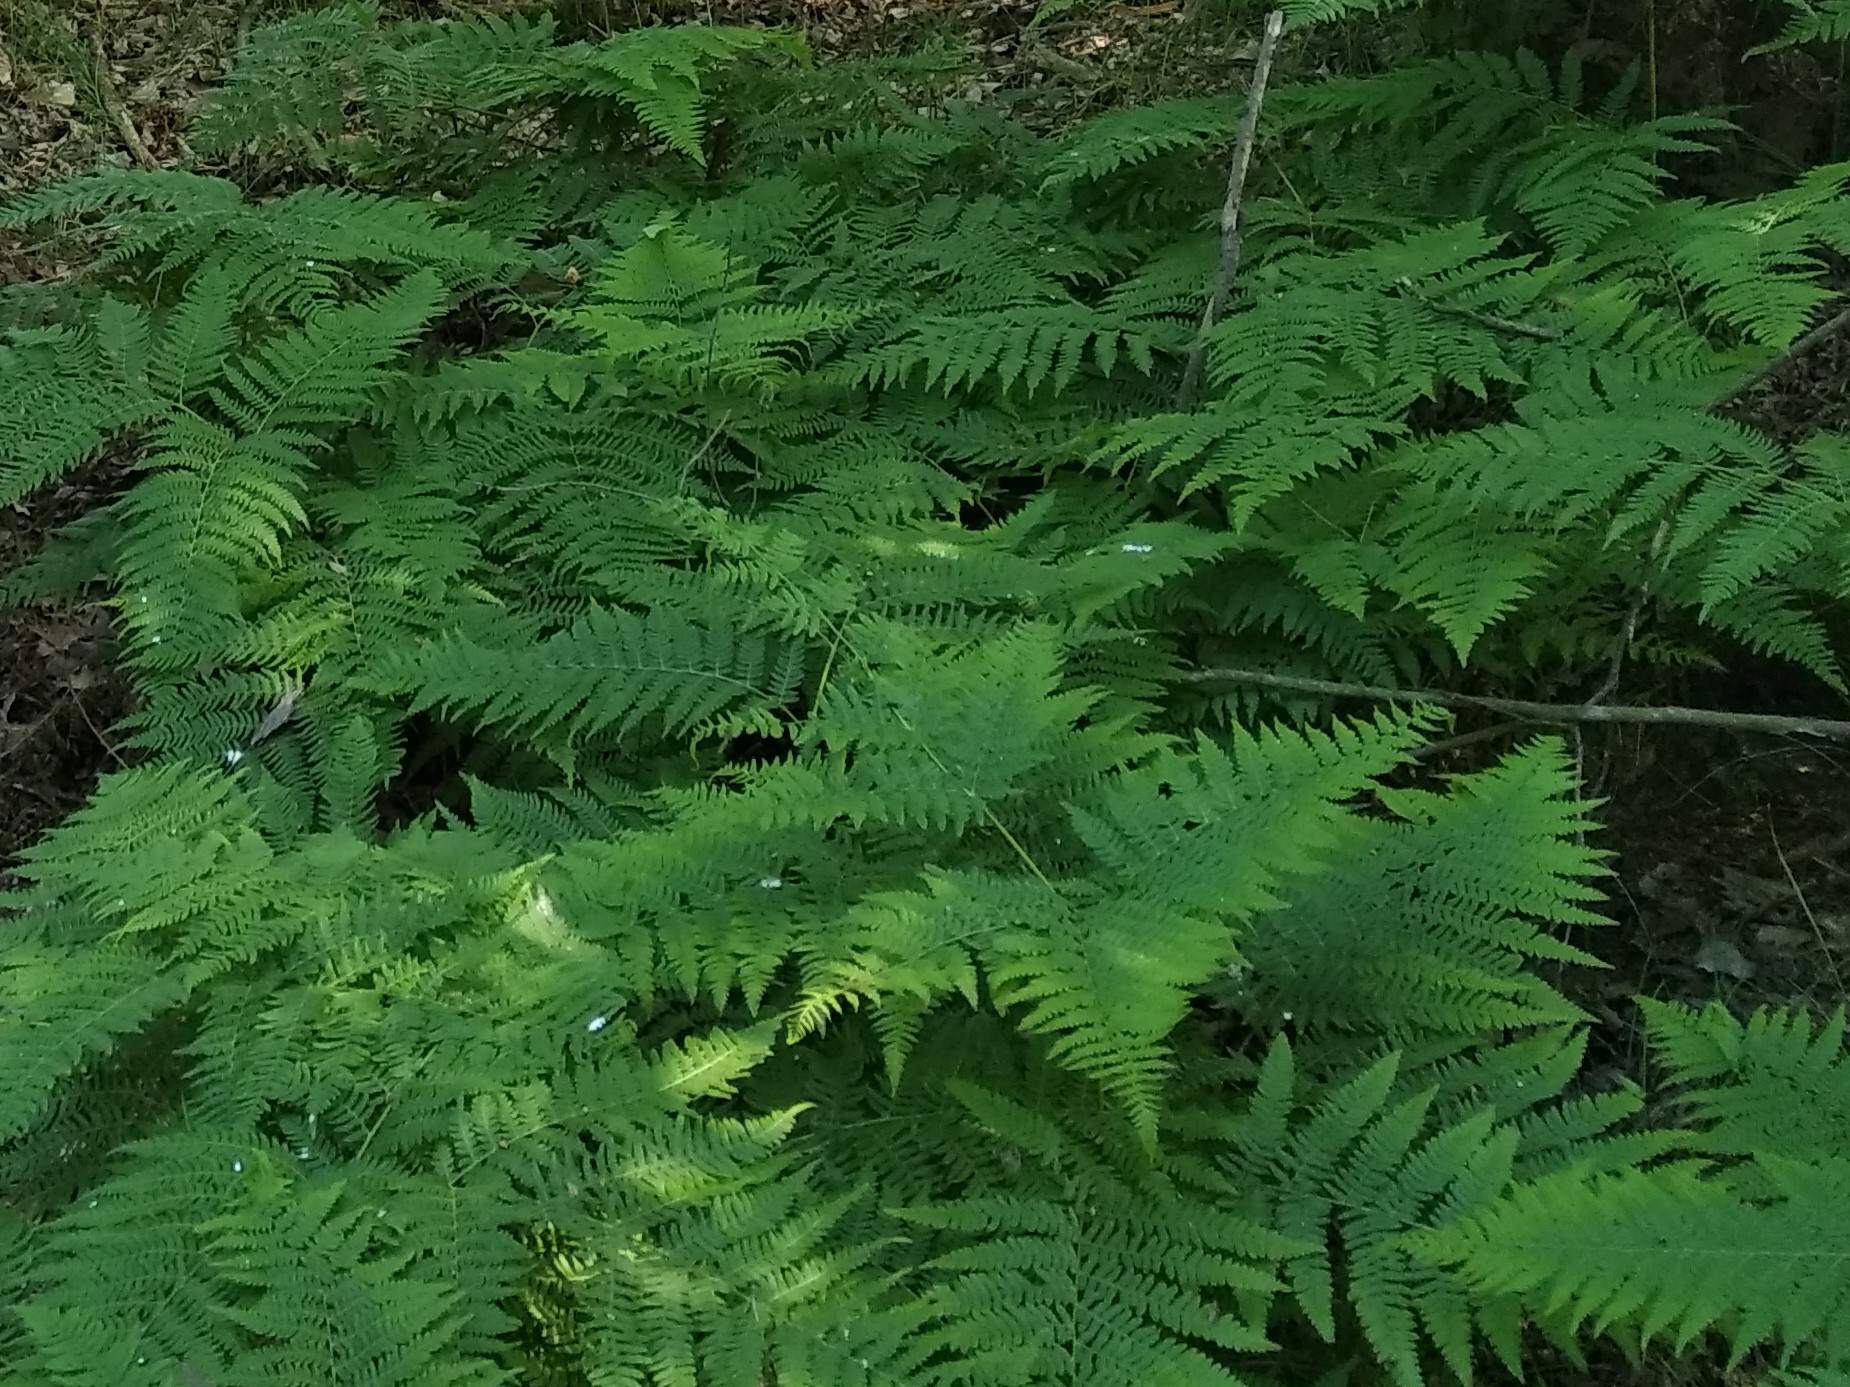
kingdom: Plantae
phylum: Tracheophyta
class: Polypodiopsida
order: Polypodiales
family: Dennstaedtiaceae
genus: Pteridium
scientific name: Pteridium aquilinum
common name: Bracken
